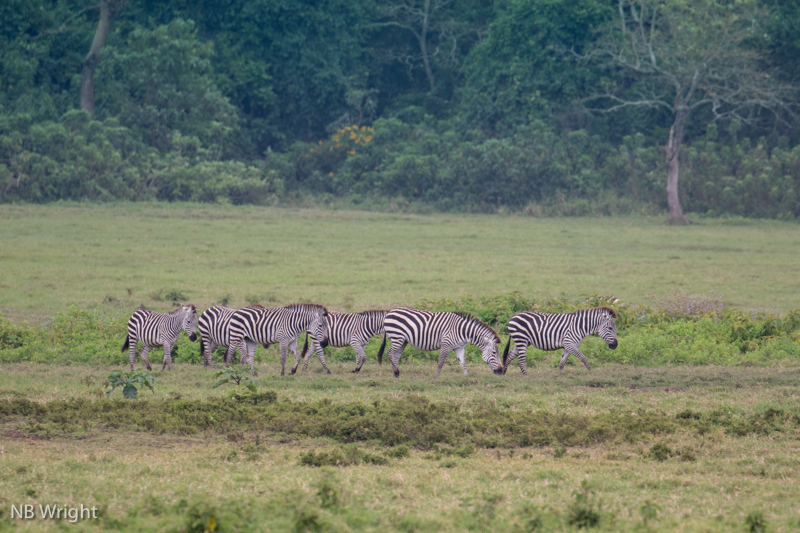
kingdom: Animalia
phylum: Chordata
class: Mammalia
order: Perissodactyla
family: Equidae
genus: Equus
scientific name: Equus quagga
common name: Plains zebra
